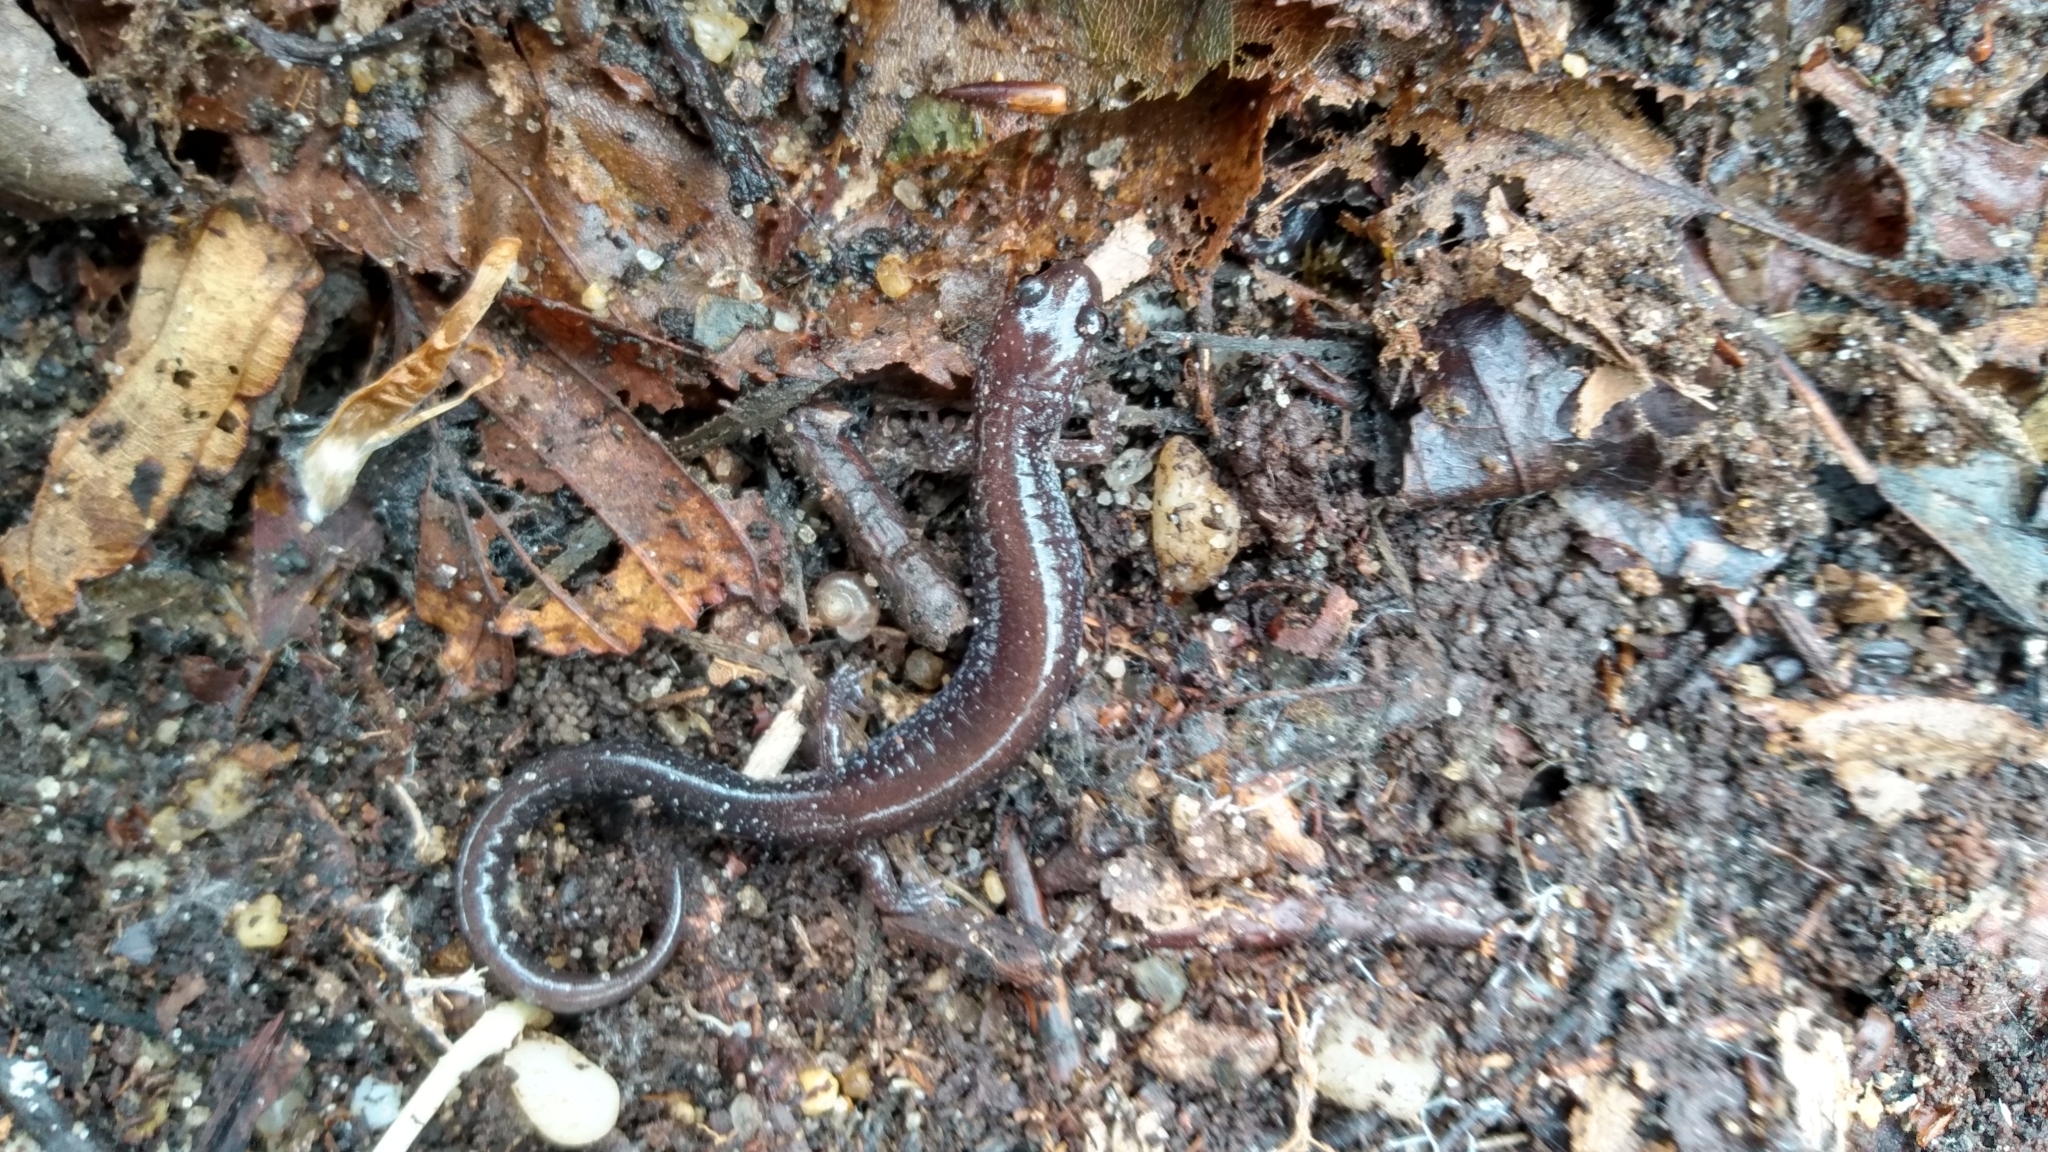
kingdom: Animalia
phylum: Chordata
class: Amphibia
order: Caudata
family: Plethodontidae
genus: Plethodon
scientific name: Plethodon cinereus
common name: Redback salamander
